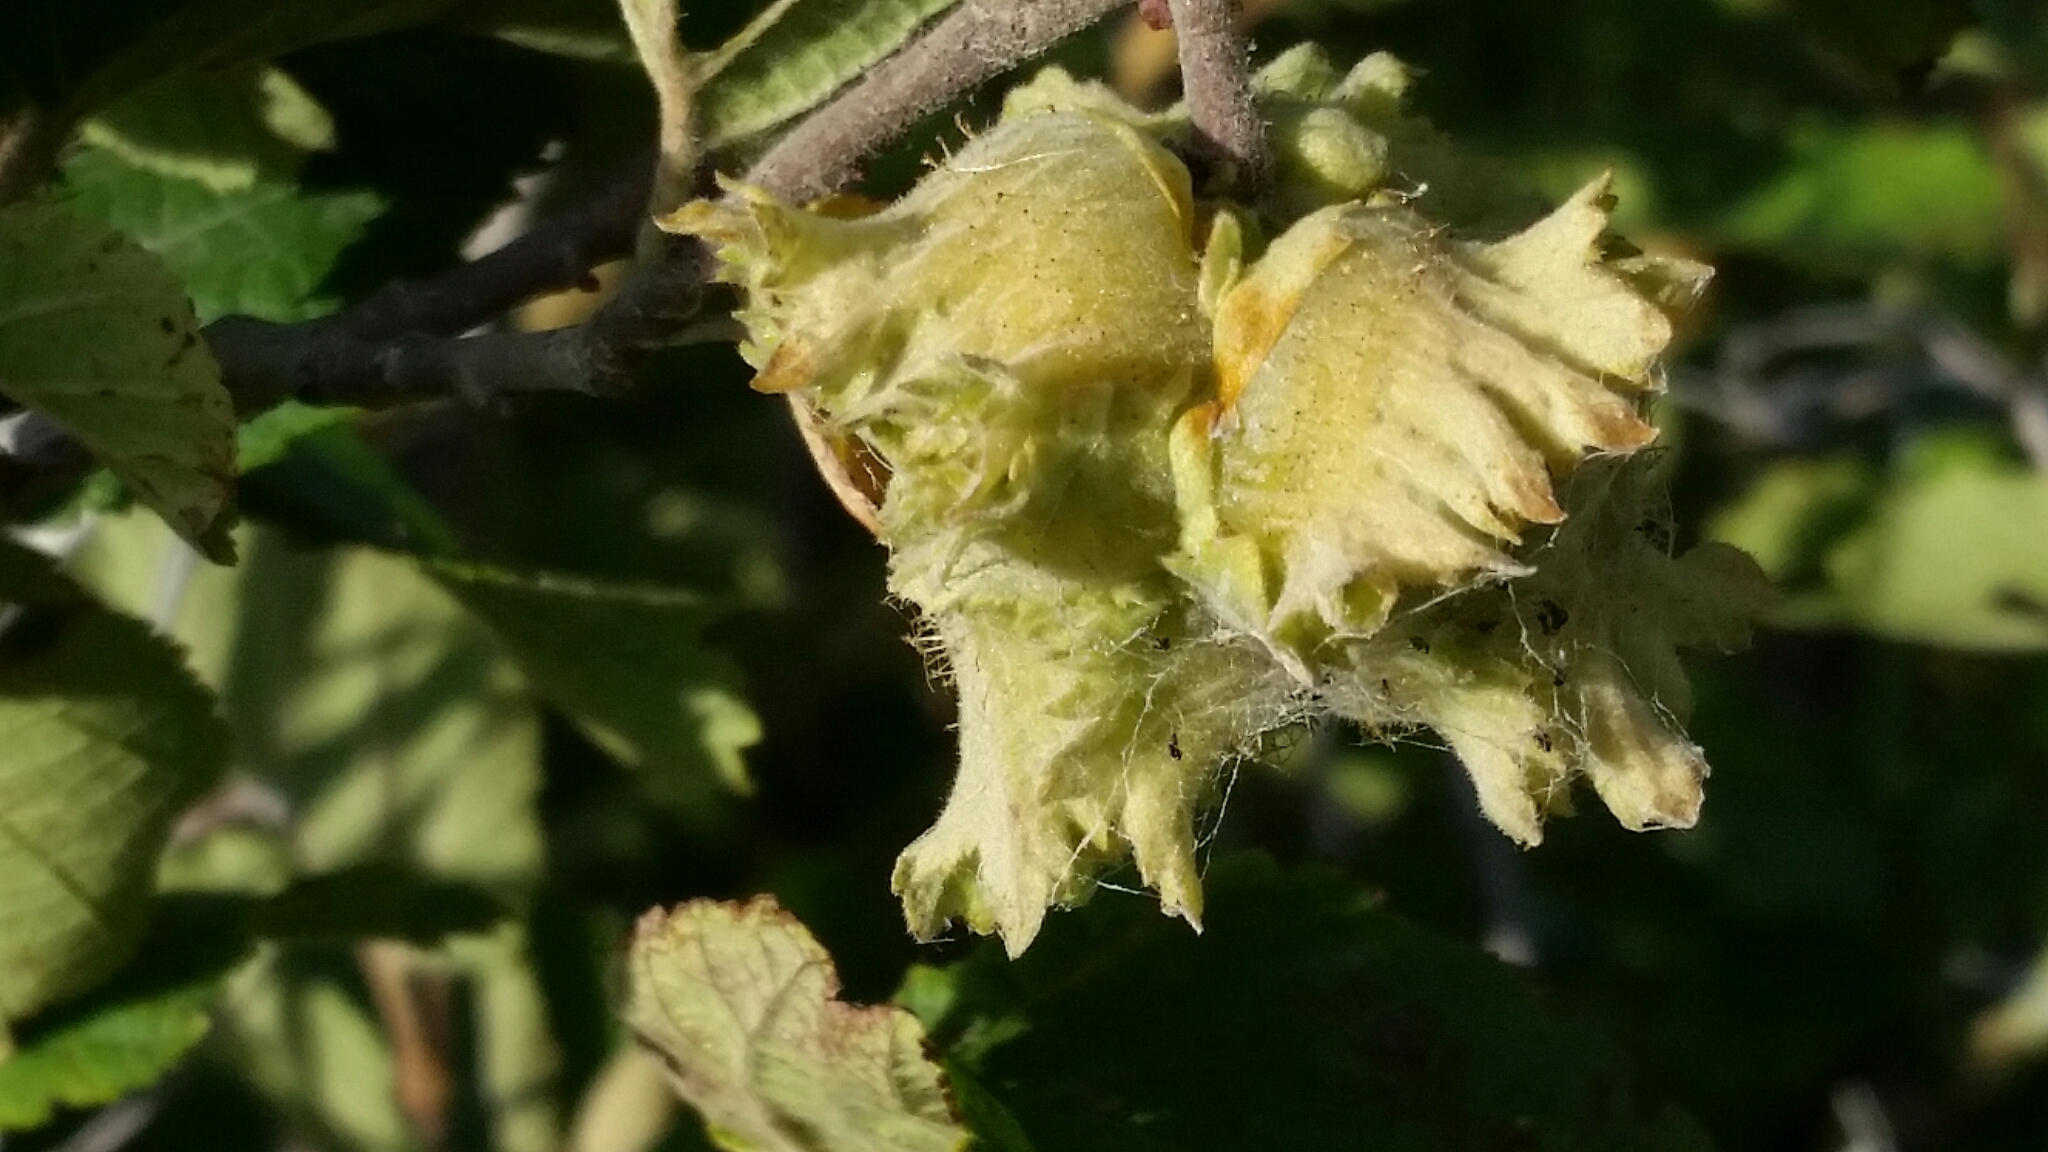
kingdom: Plantae
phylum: Tracheophyta
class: Magnoliopsida
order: Fagales
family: Betulaceae
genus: Corylus
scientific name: Corylus americana
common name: American hazel
